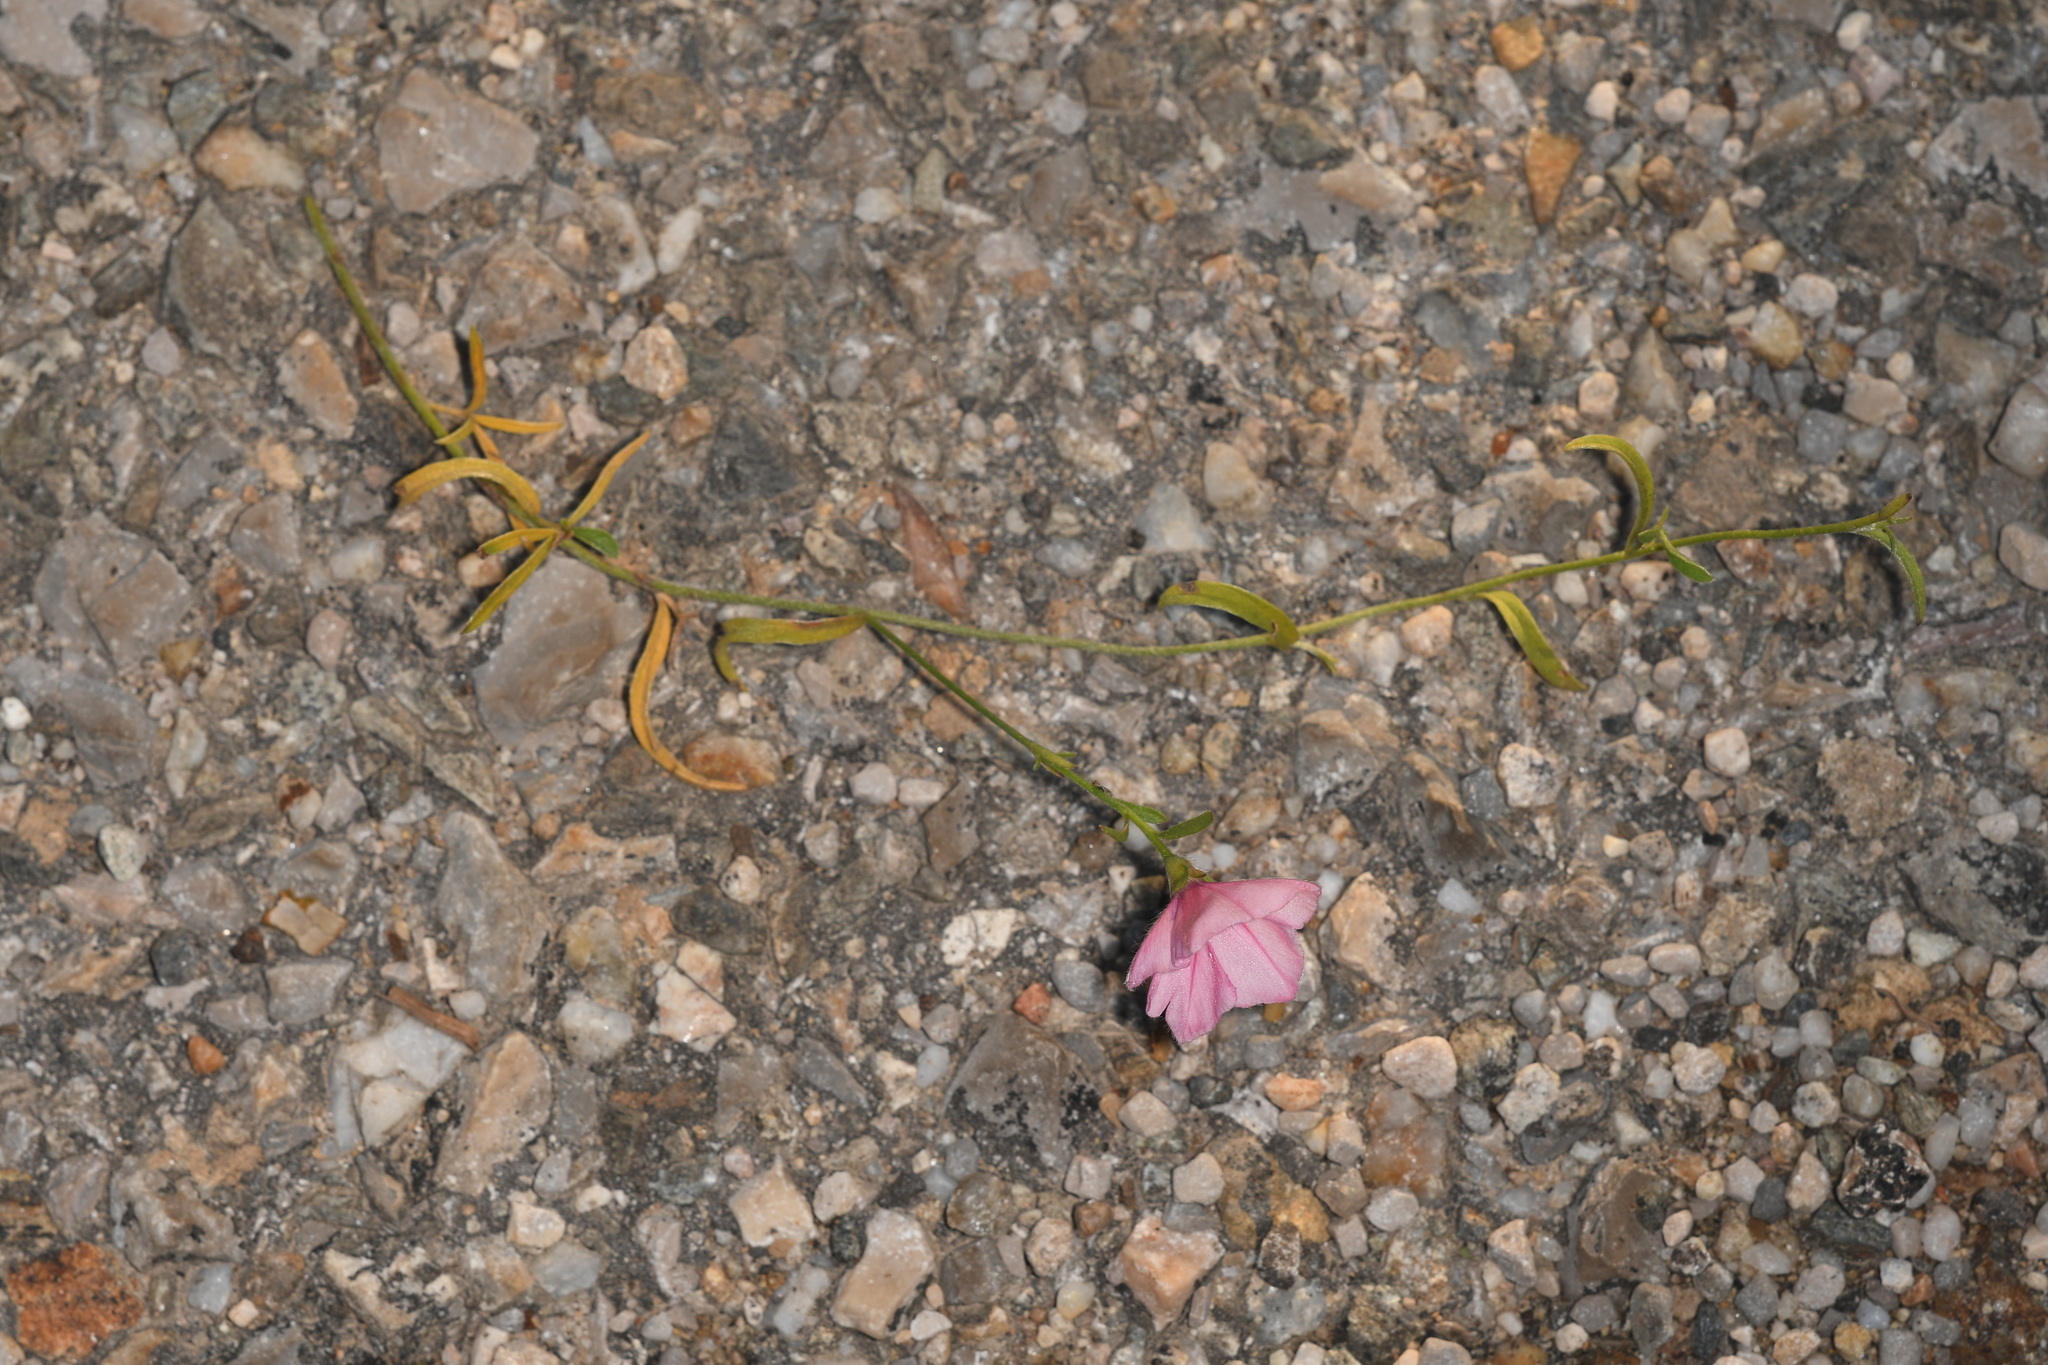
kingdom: Plantae
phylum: Tracheophyta
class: Magnoliopsida
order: Solanales
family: Convolvulaceae
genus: Convolvulus
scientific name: Convolvulus cantabrica
